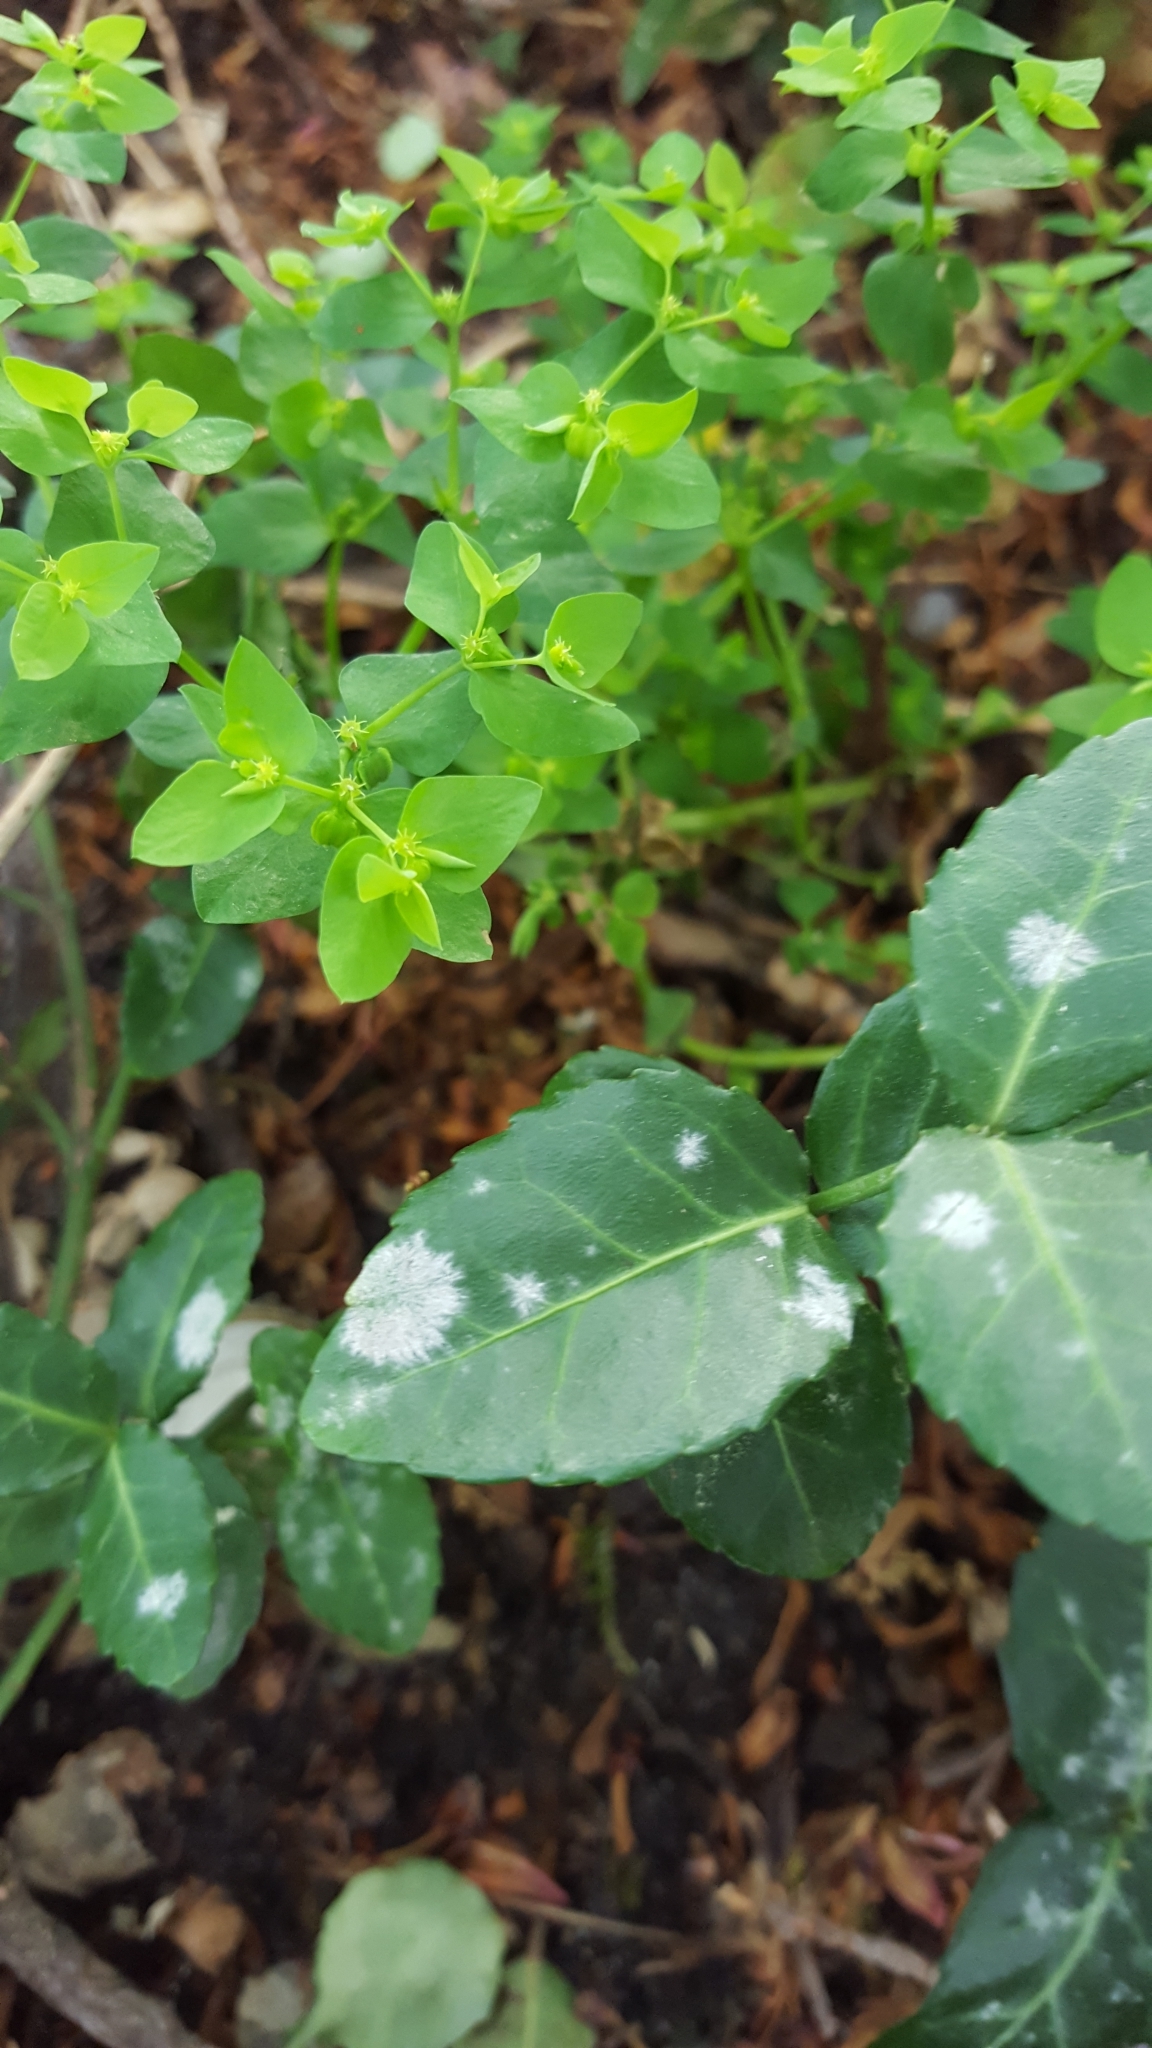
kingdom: Fungi
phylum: Ascomycota
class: Leotiomycetes
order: Helotiales
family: Erysiphaceae
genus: Erysiphe
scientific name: Erysiphe euonymicola
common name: Spindletree mildew
